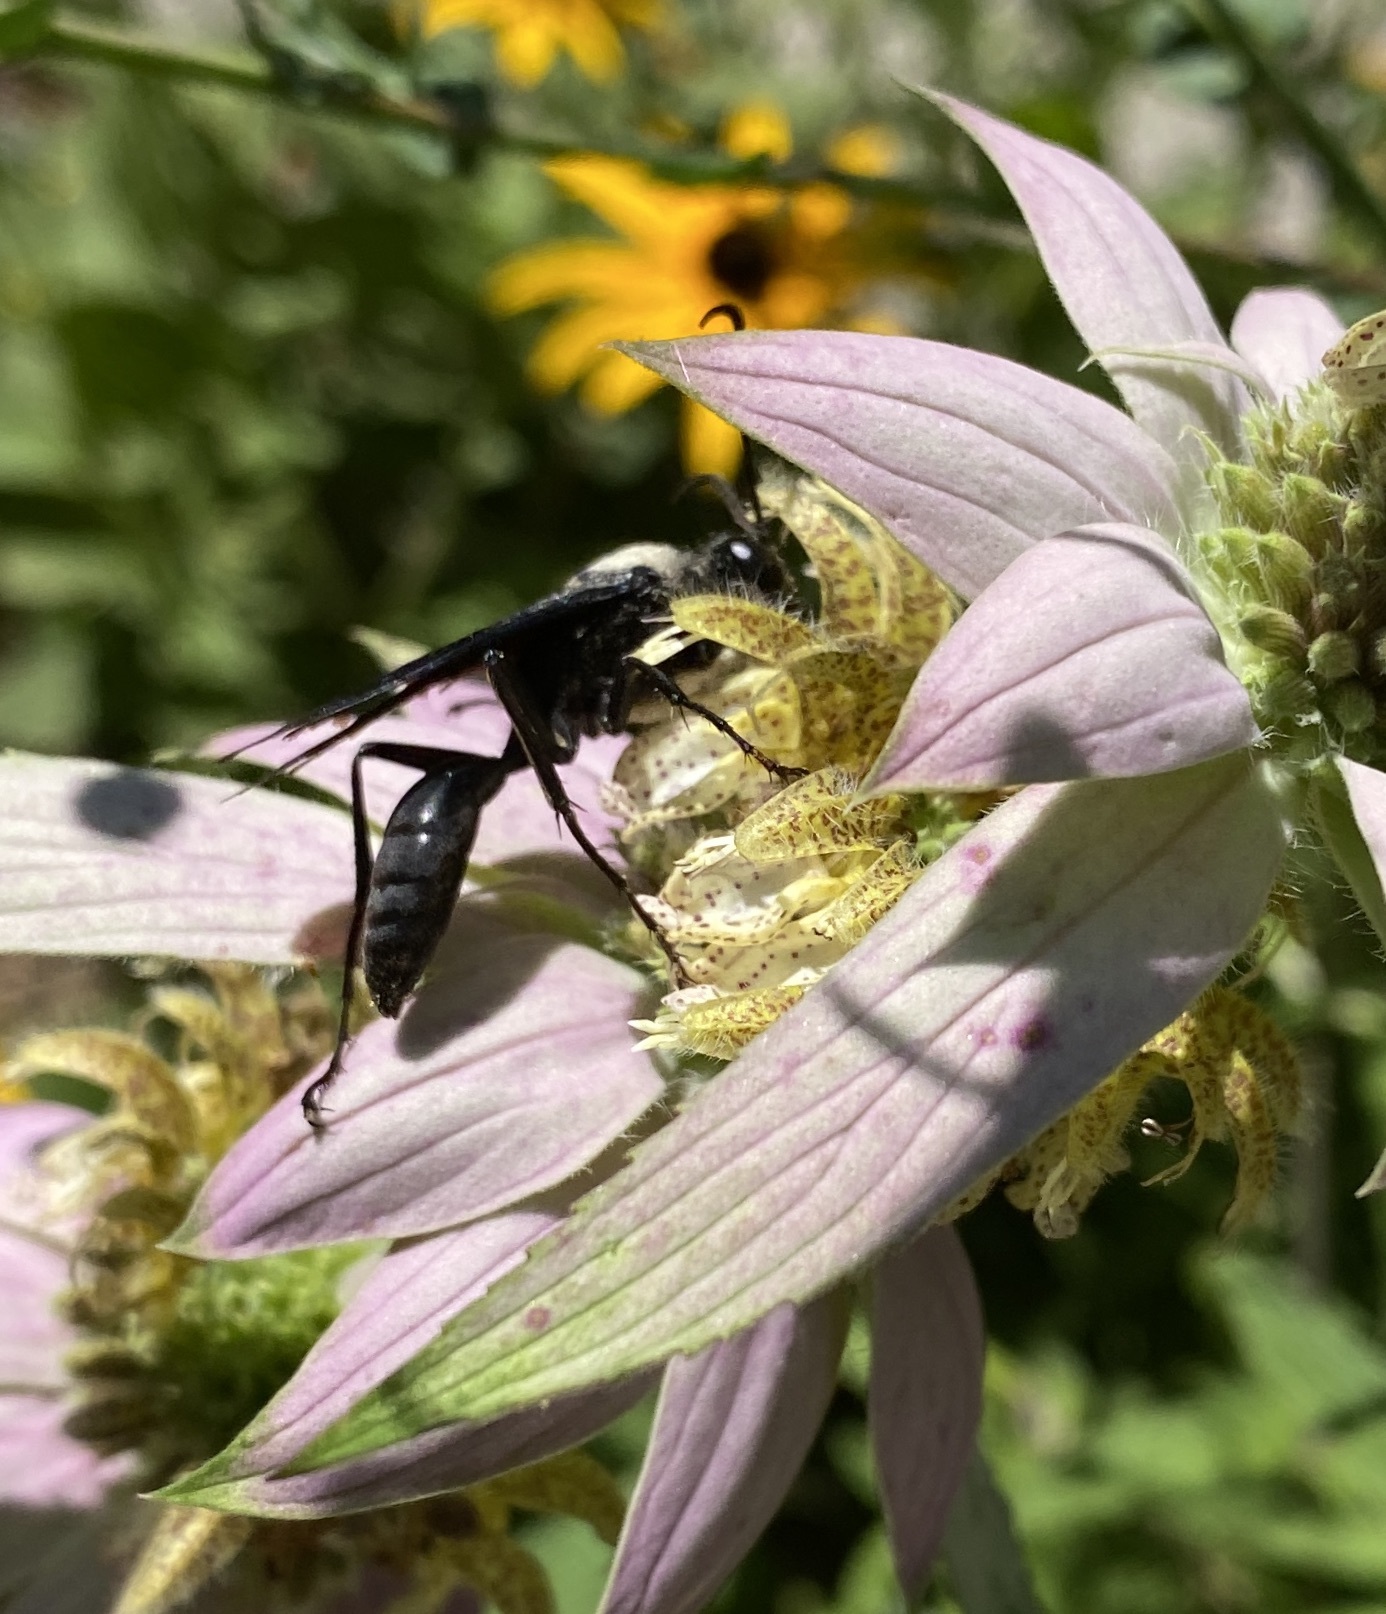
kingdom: Animalia
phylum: Arthropoda
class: Insecta
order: Hymenoptera
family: Sphecidae
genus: Sphex
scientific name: Sphex pensylvanicus
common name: Great black digger wasp
